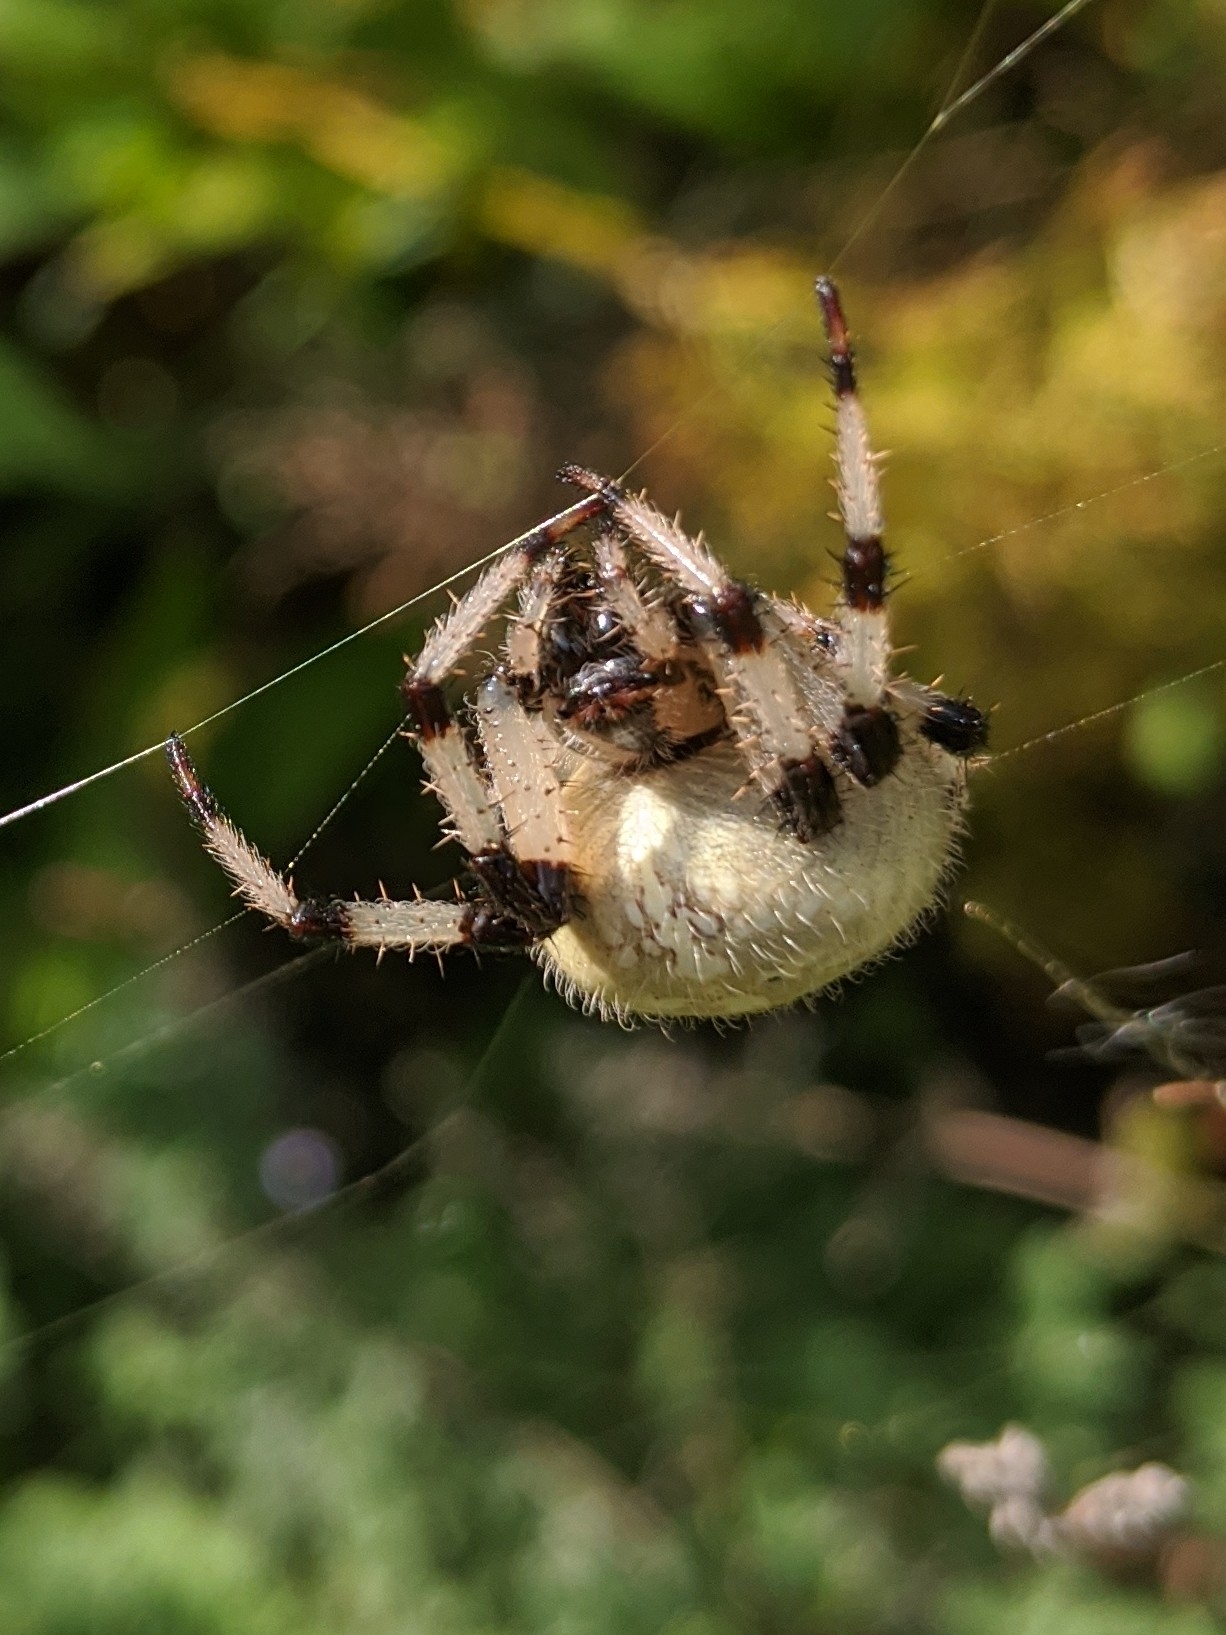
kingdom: Animalia
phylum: Arthropoda
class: Arachnida
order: Araneae
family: Araneidae
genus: Araneus
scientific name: Araneus trifolium
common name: Shamrock orbweaver
